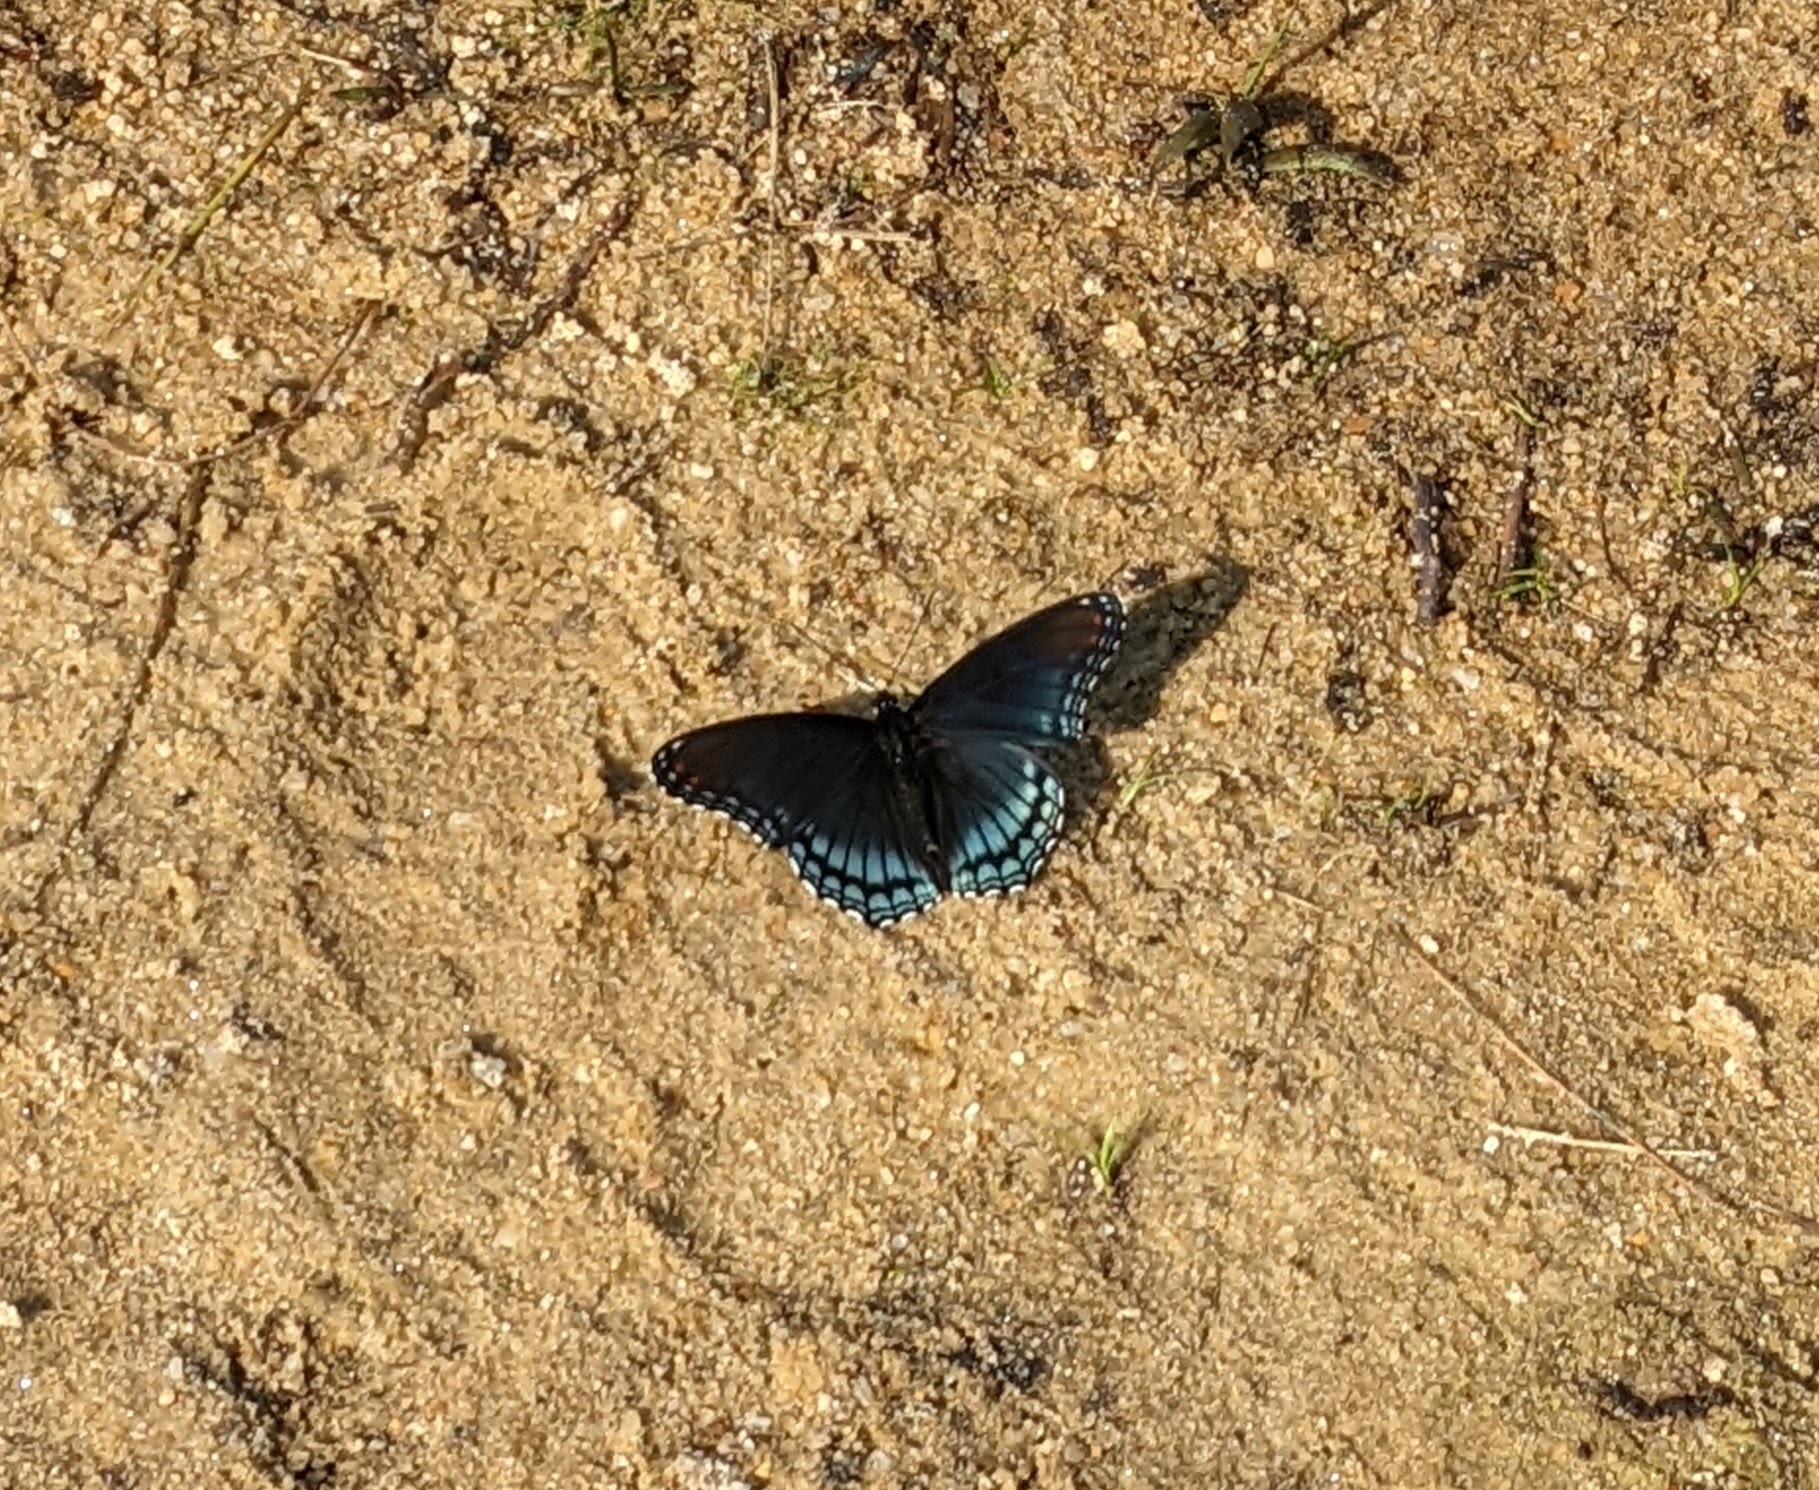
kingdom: Animalia
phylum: Arthropoda
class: Insecta
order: Lepidoptera
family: Nymphalidae
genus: Limenitis
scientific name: Limenitis astyanax
